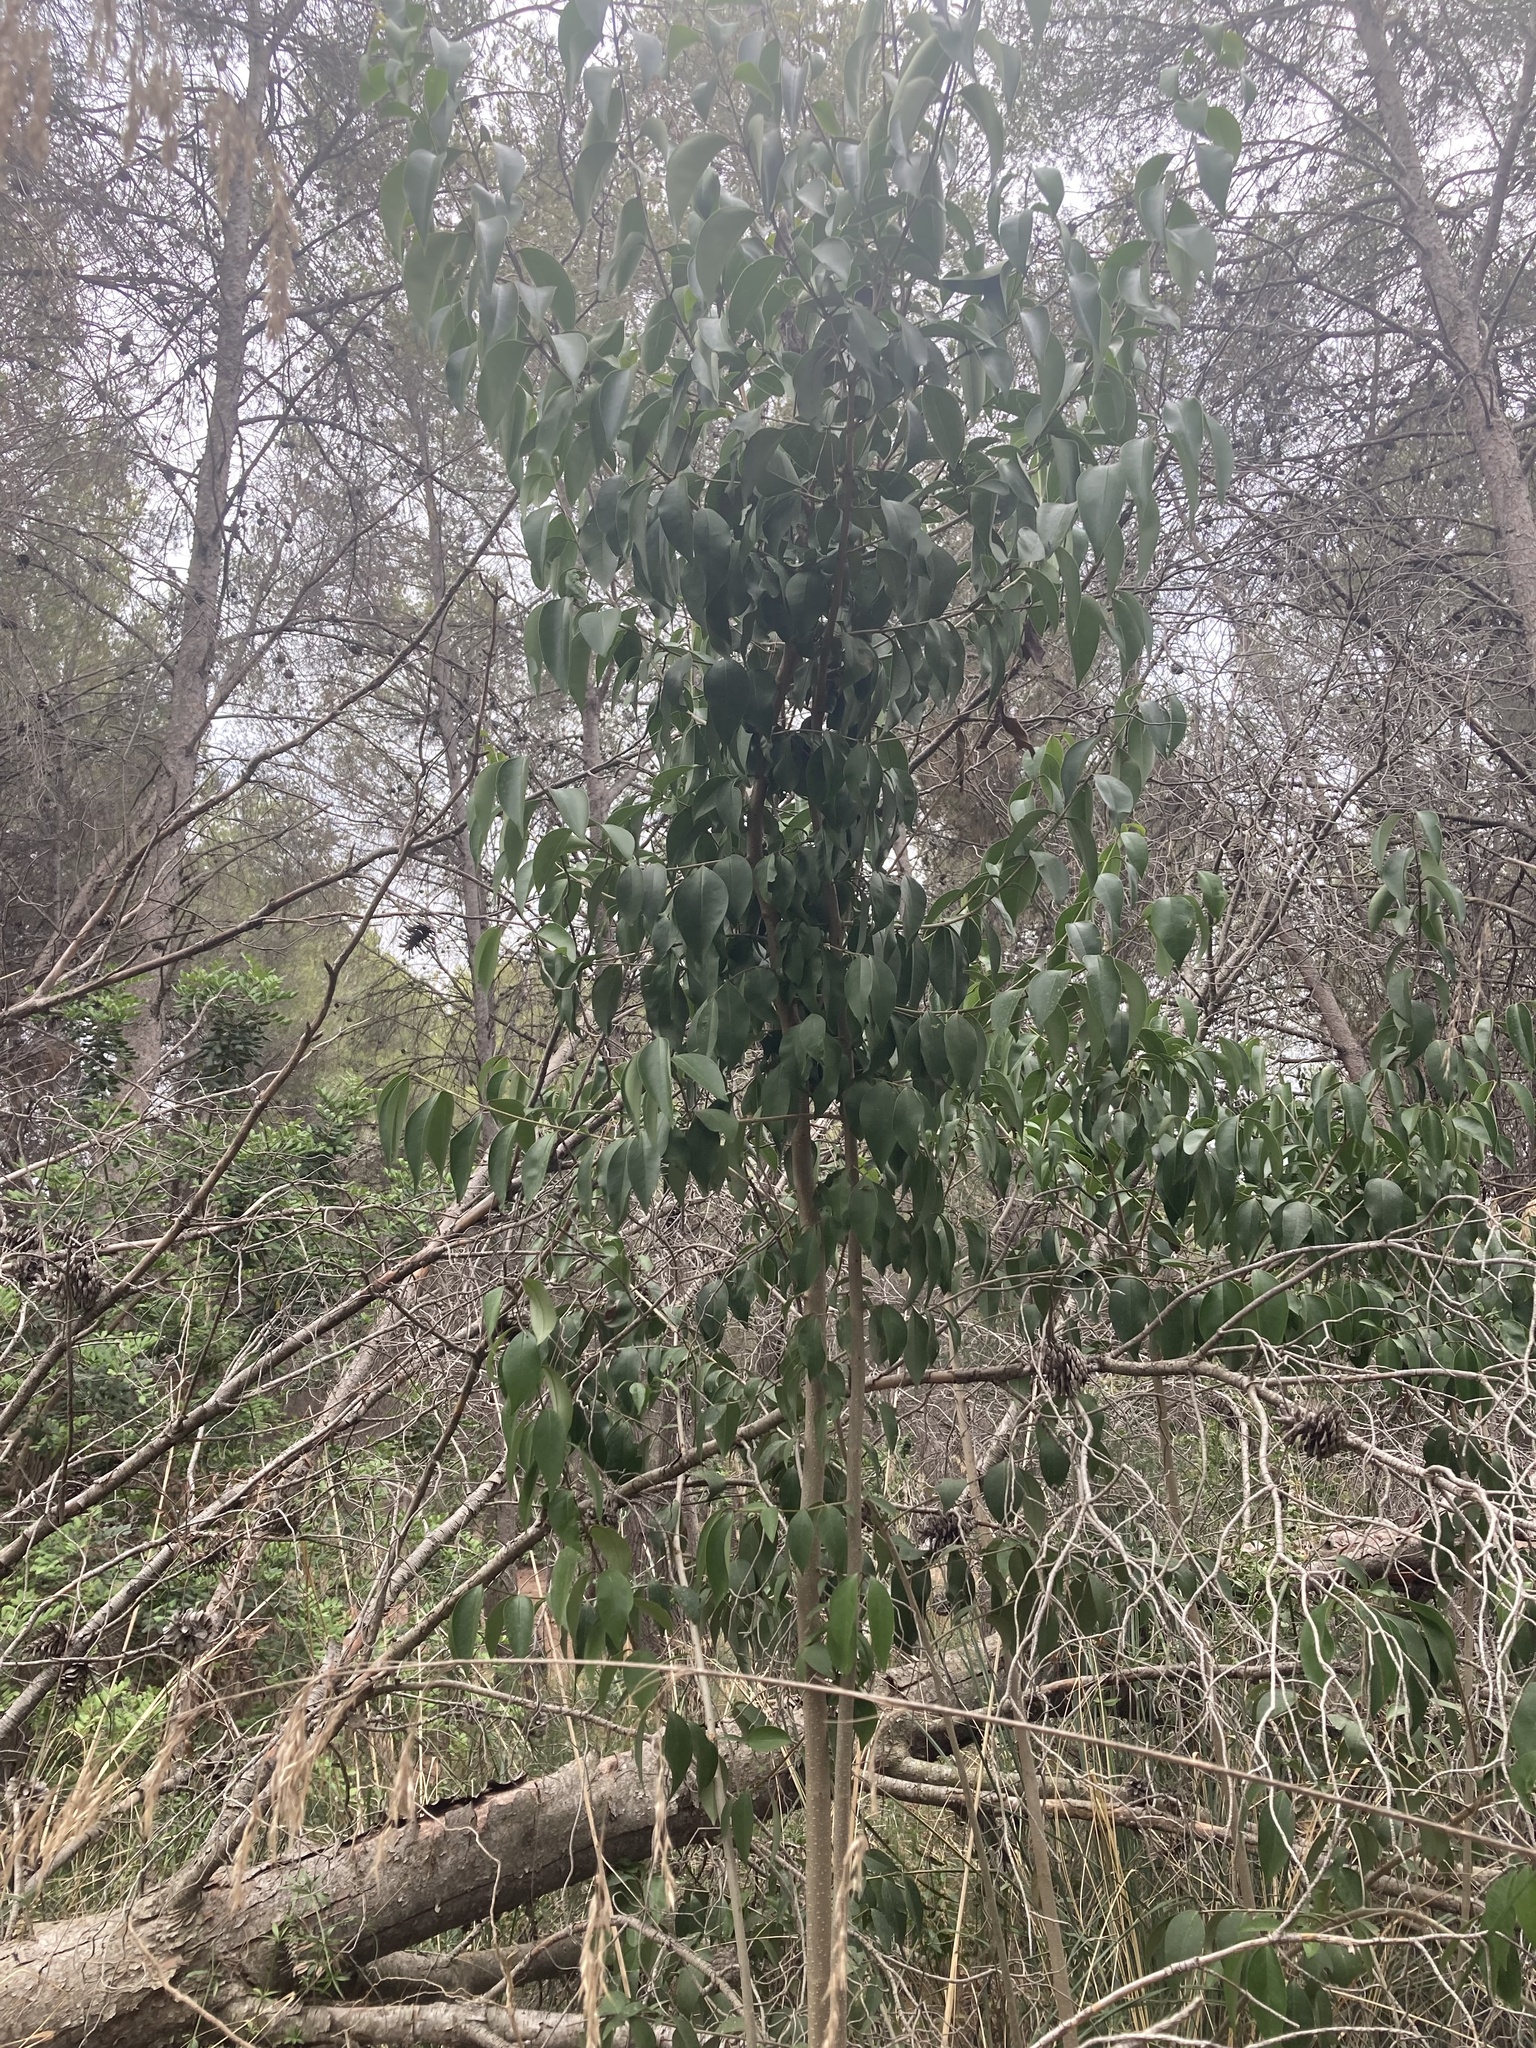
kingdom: Plantae
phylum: Tracheophyta
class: Magnoliopsida
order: Lamiales
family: Oleaceae
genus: Ligustrum
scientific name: Ligustrum lucidum
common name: Glossy privet
